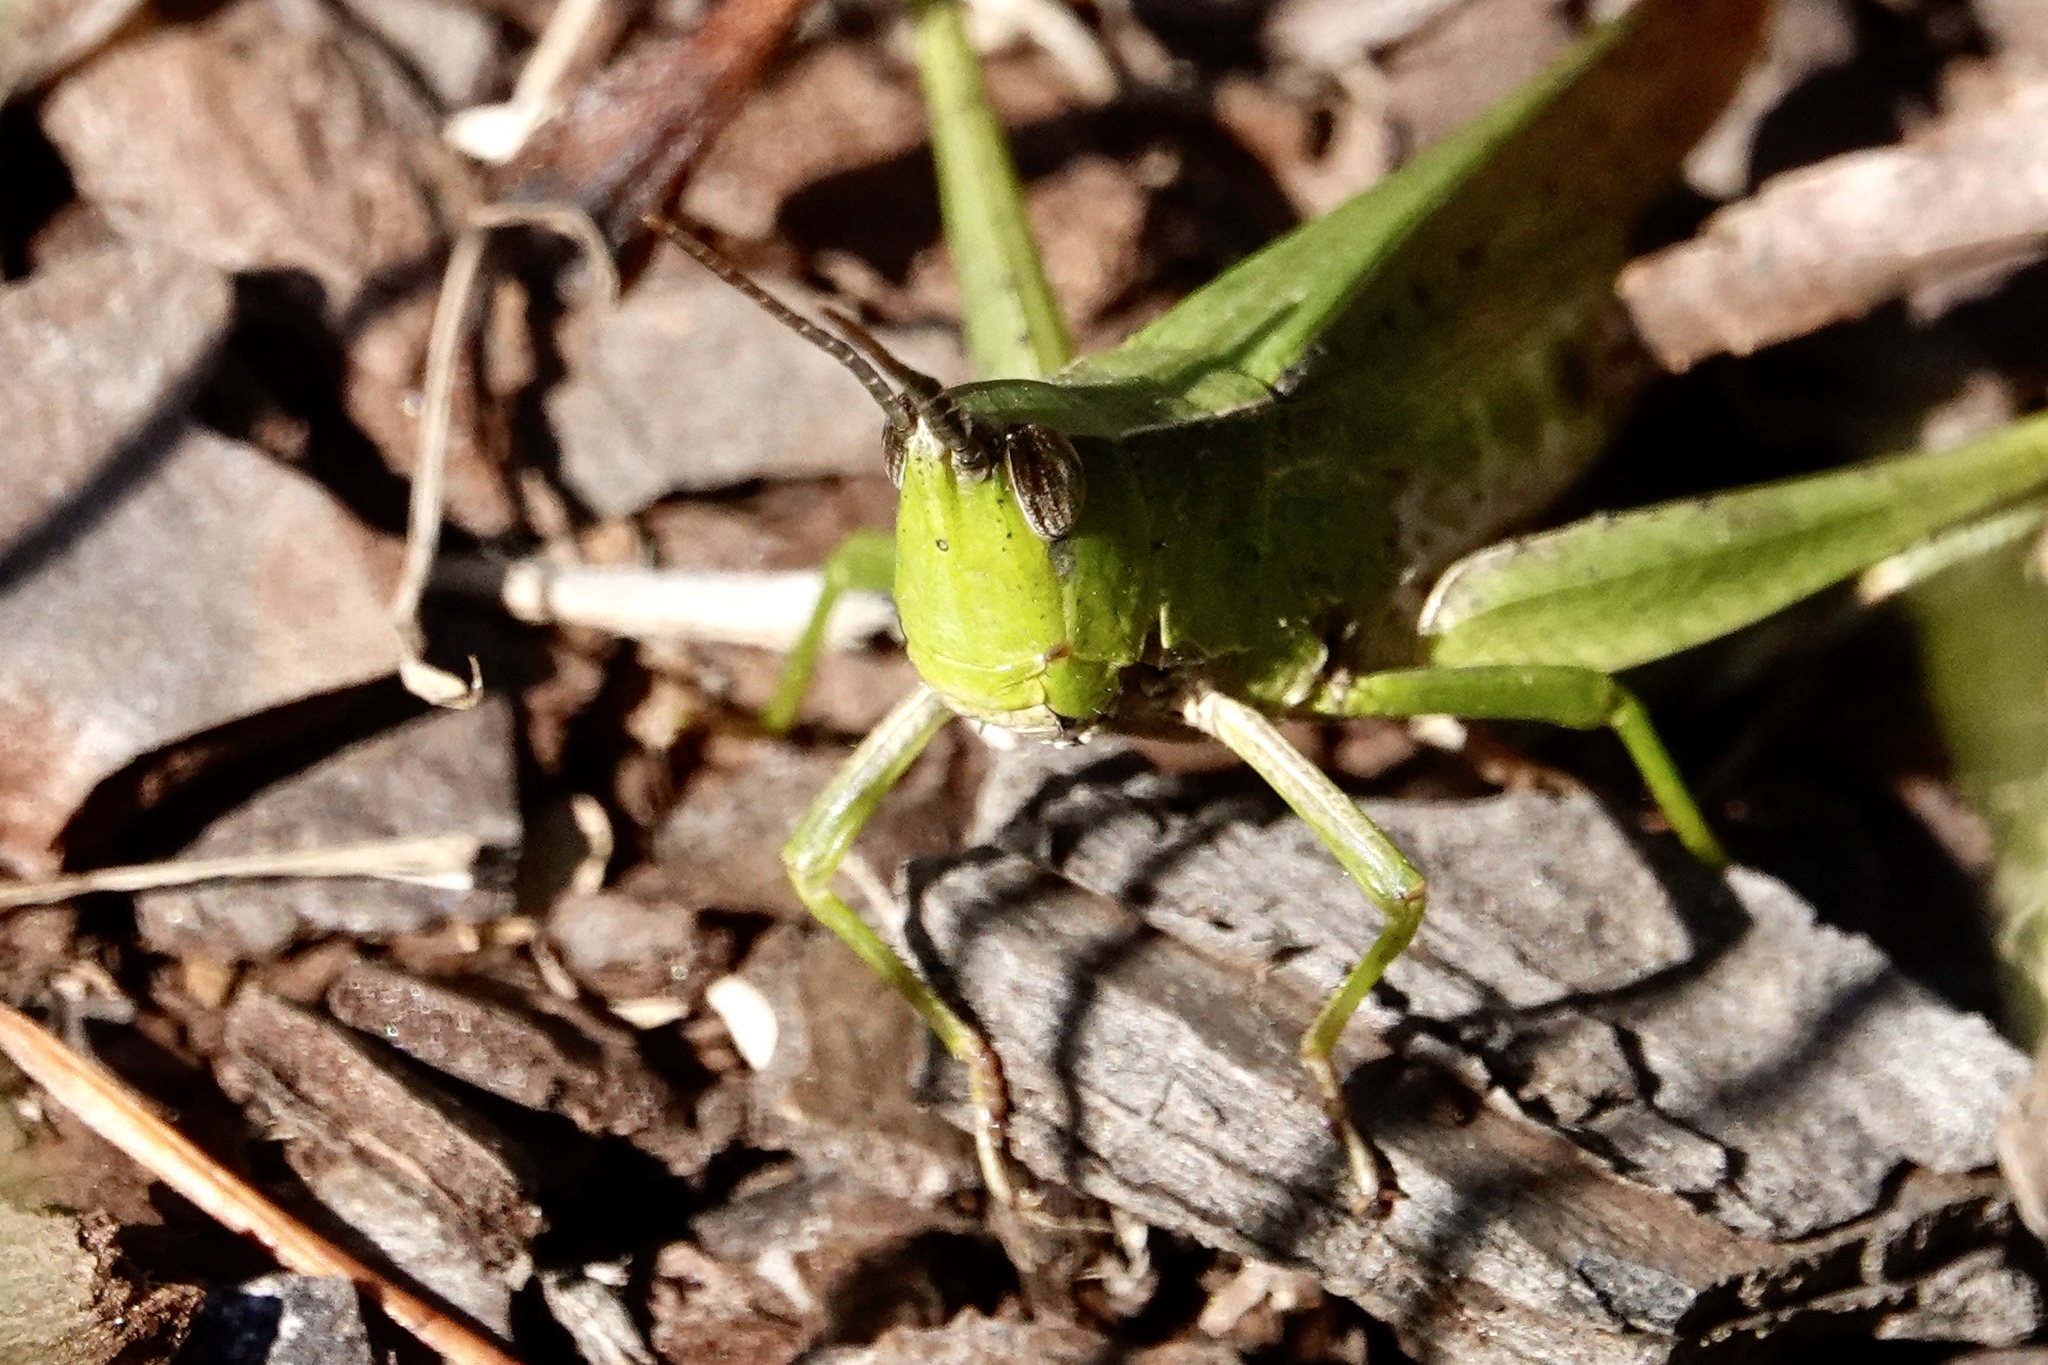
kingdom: Animalia
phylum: Arthropoda
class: Insecta
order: Orthoptera
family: Acrididae
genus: Metaleptea
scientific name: Metaleptea brevicornis
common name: Clipped-wing grasshopper
